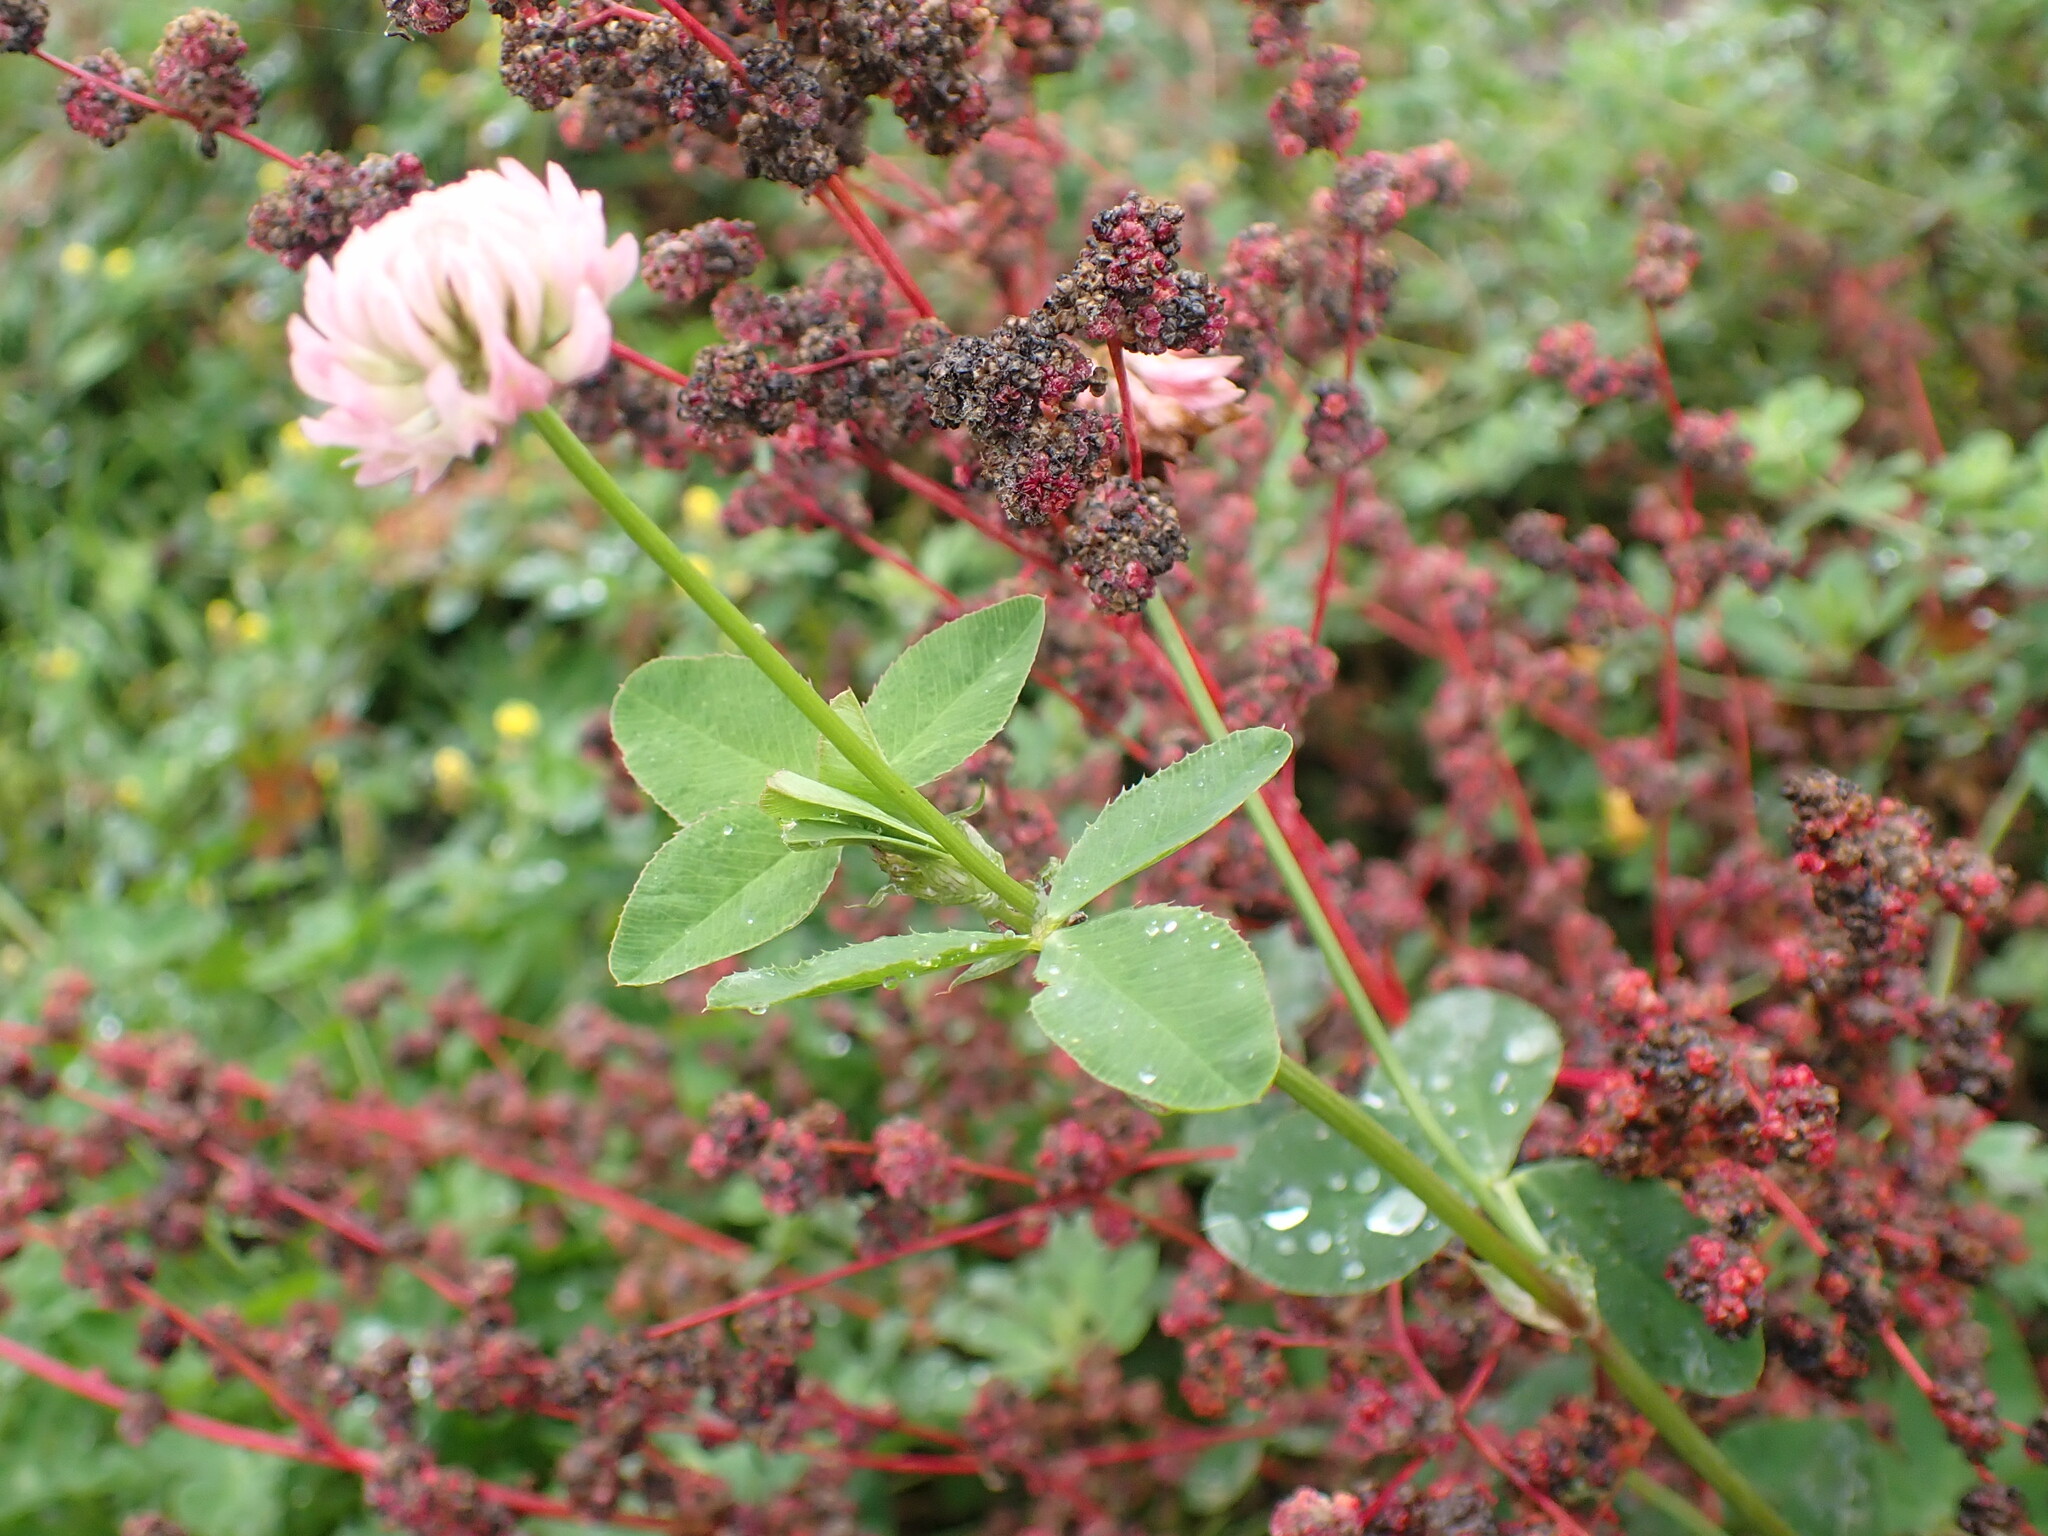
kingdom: Plantae
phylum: Tracheophyta
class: Magnoliopsida
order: Fabales
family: Fabaceae
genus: Trifolium
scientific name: Trifolium hybridum
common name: Alsike clover
